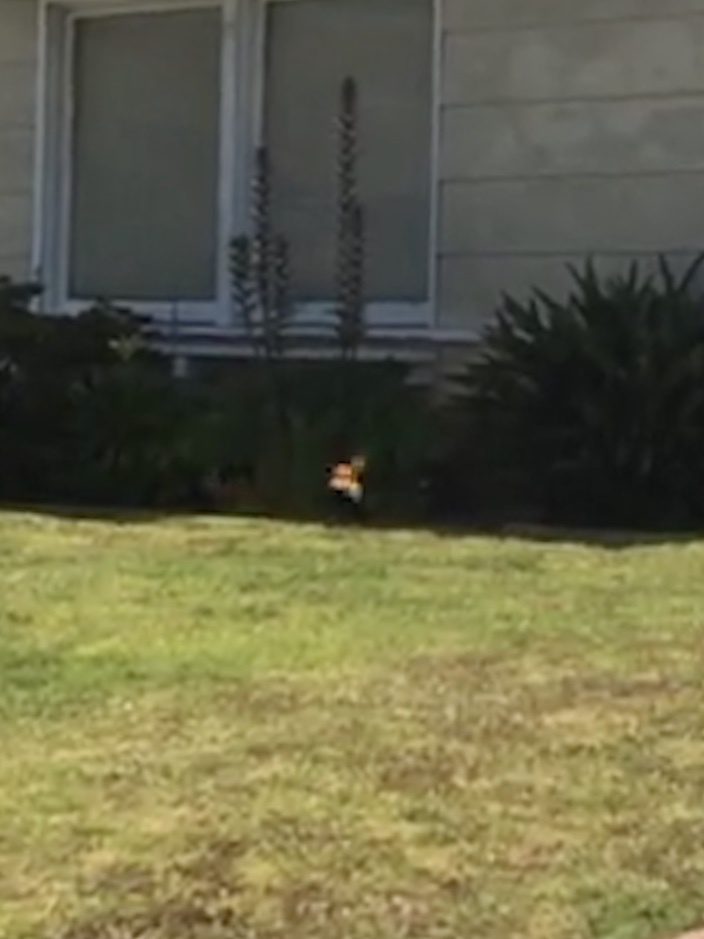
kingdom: Animalia
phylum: Arthropoda
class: Insecta
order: Lepidoptera
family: Nymphalidae
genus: Danaus
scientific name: Danaus plexippus
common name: Monarch
